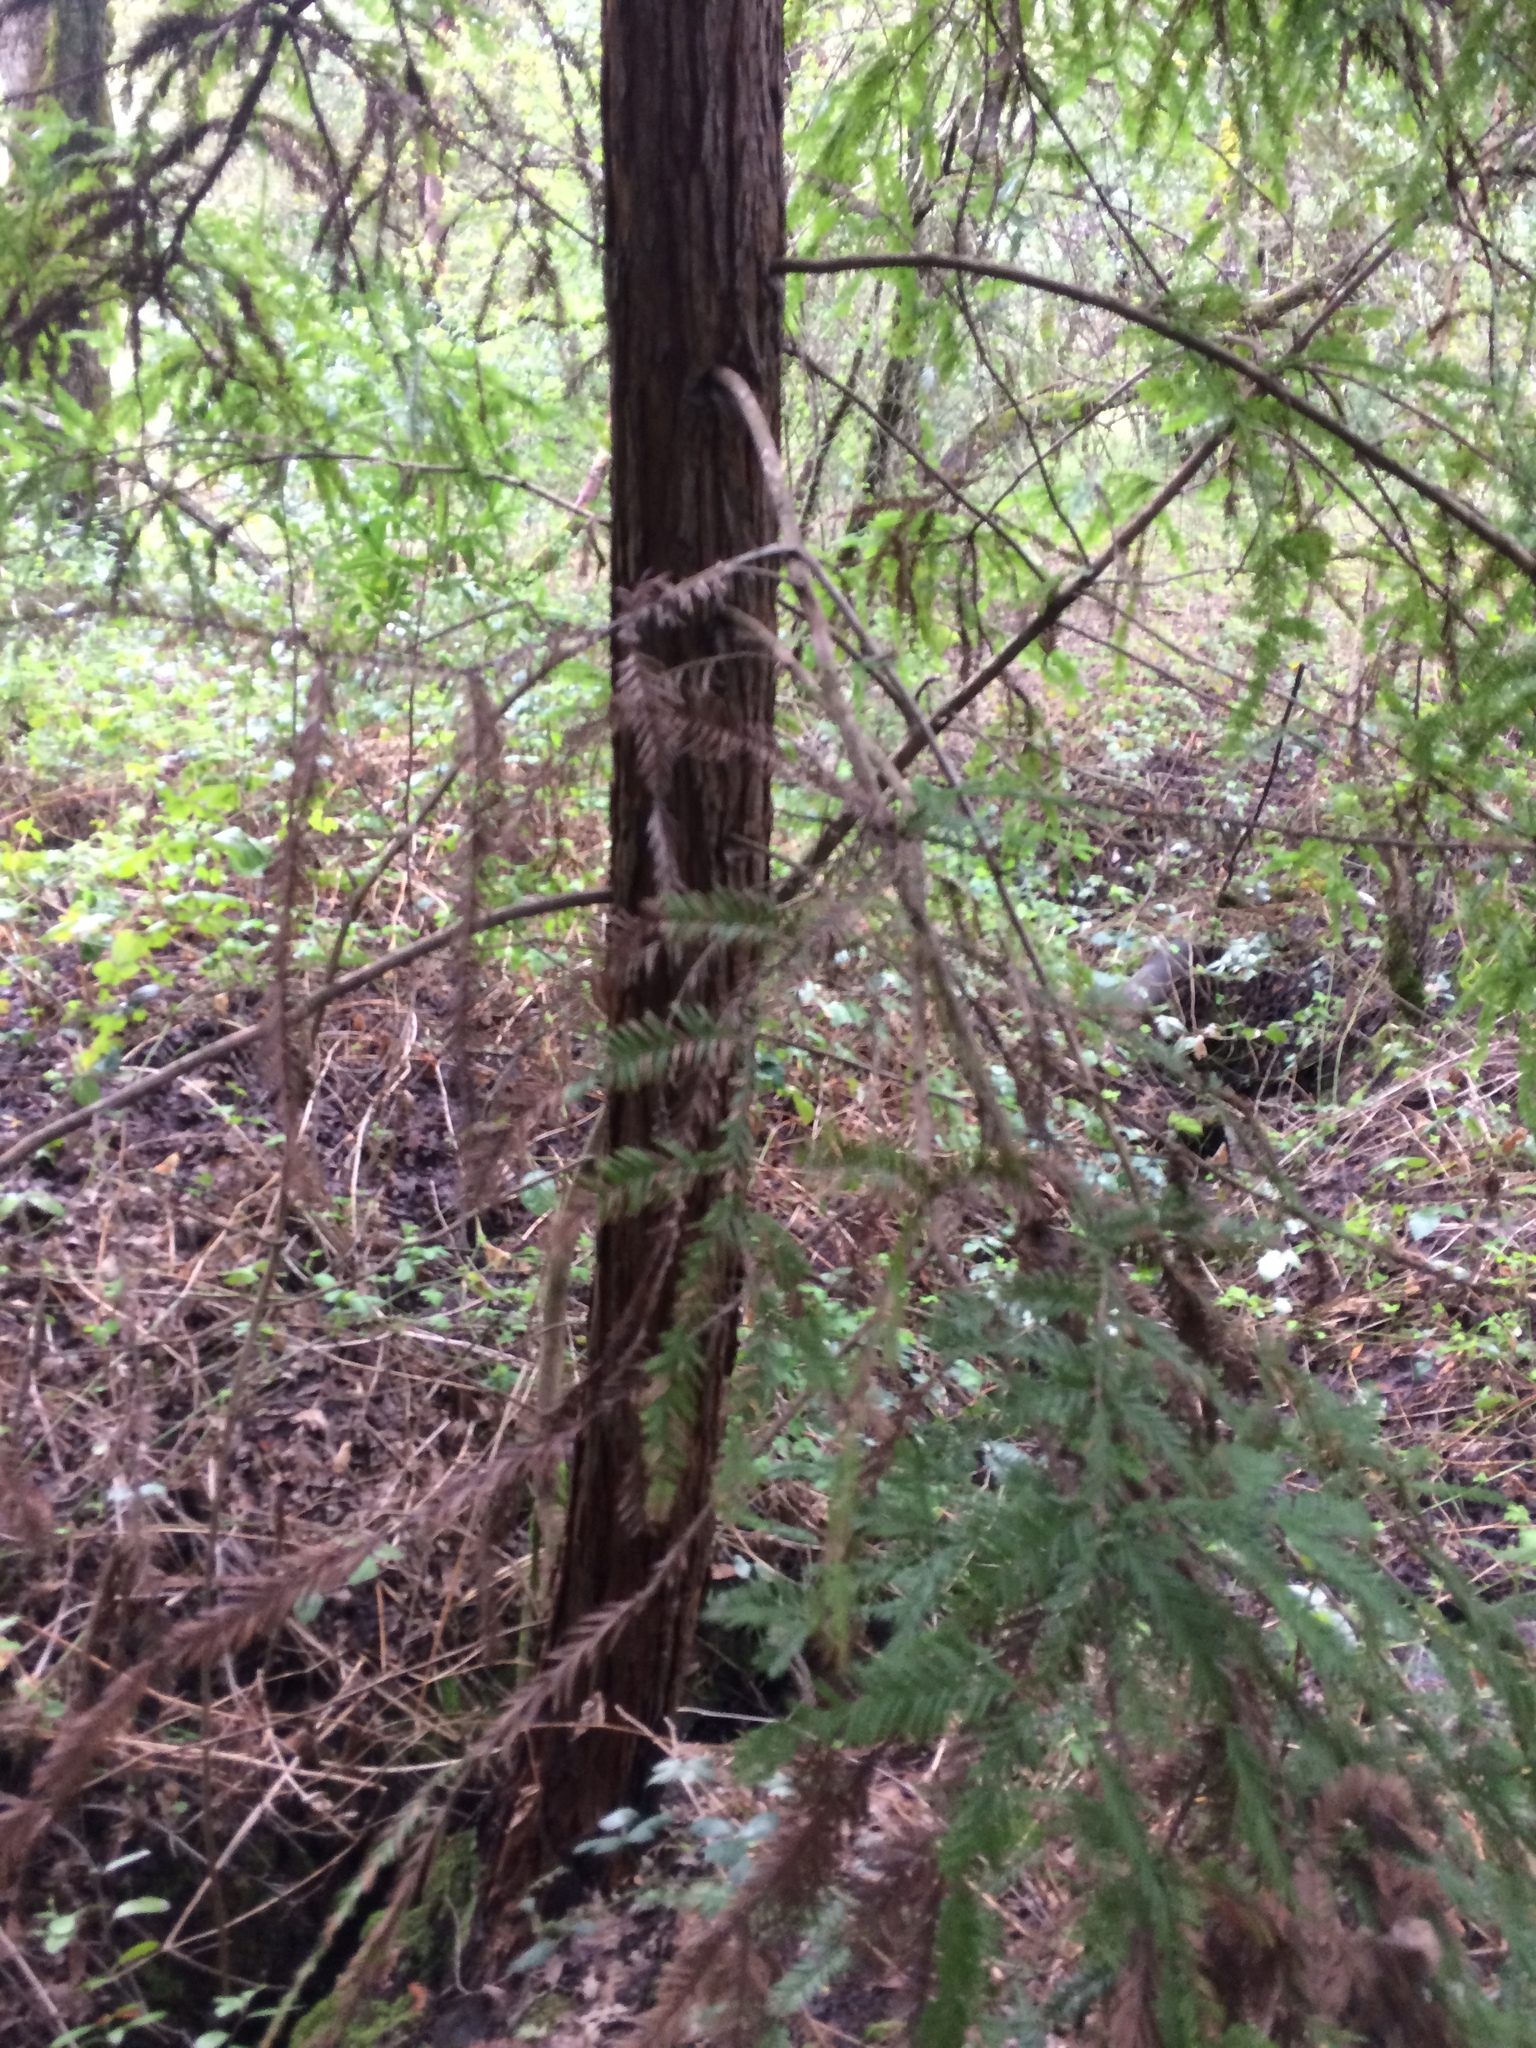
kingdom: Plantae
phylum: Tracheophyta
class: Pinopsida
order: Pinales
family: Cupressaceae
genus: Sequoia
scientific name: Sequoia sempervirens
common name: Coast redwood
